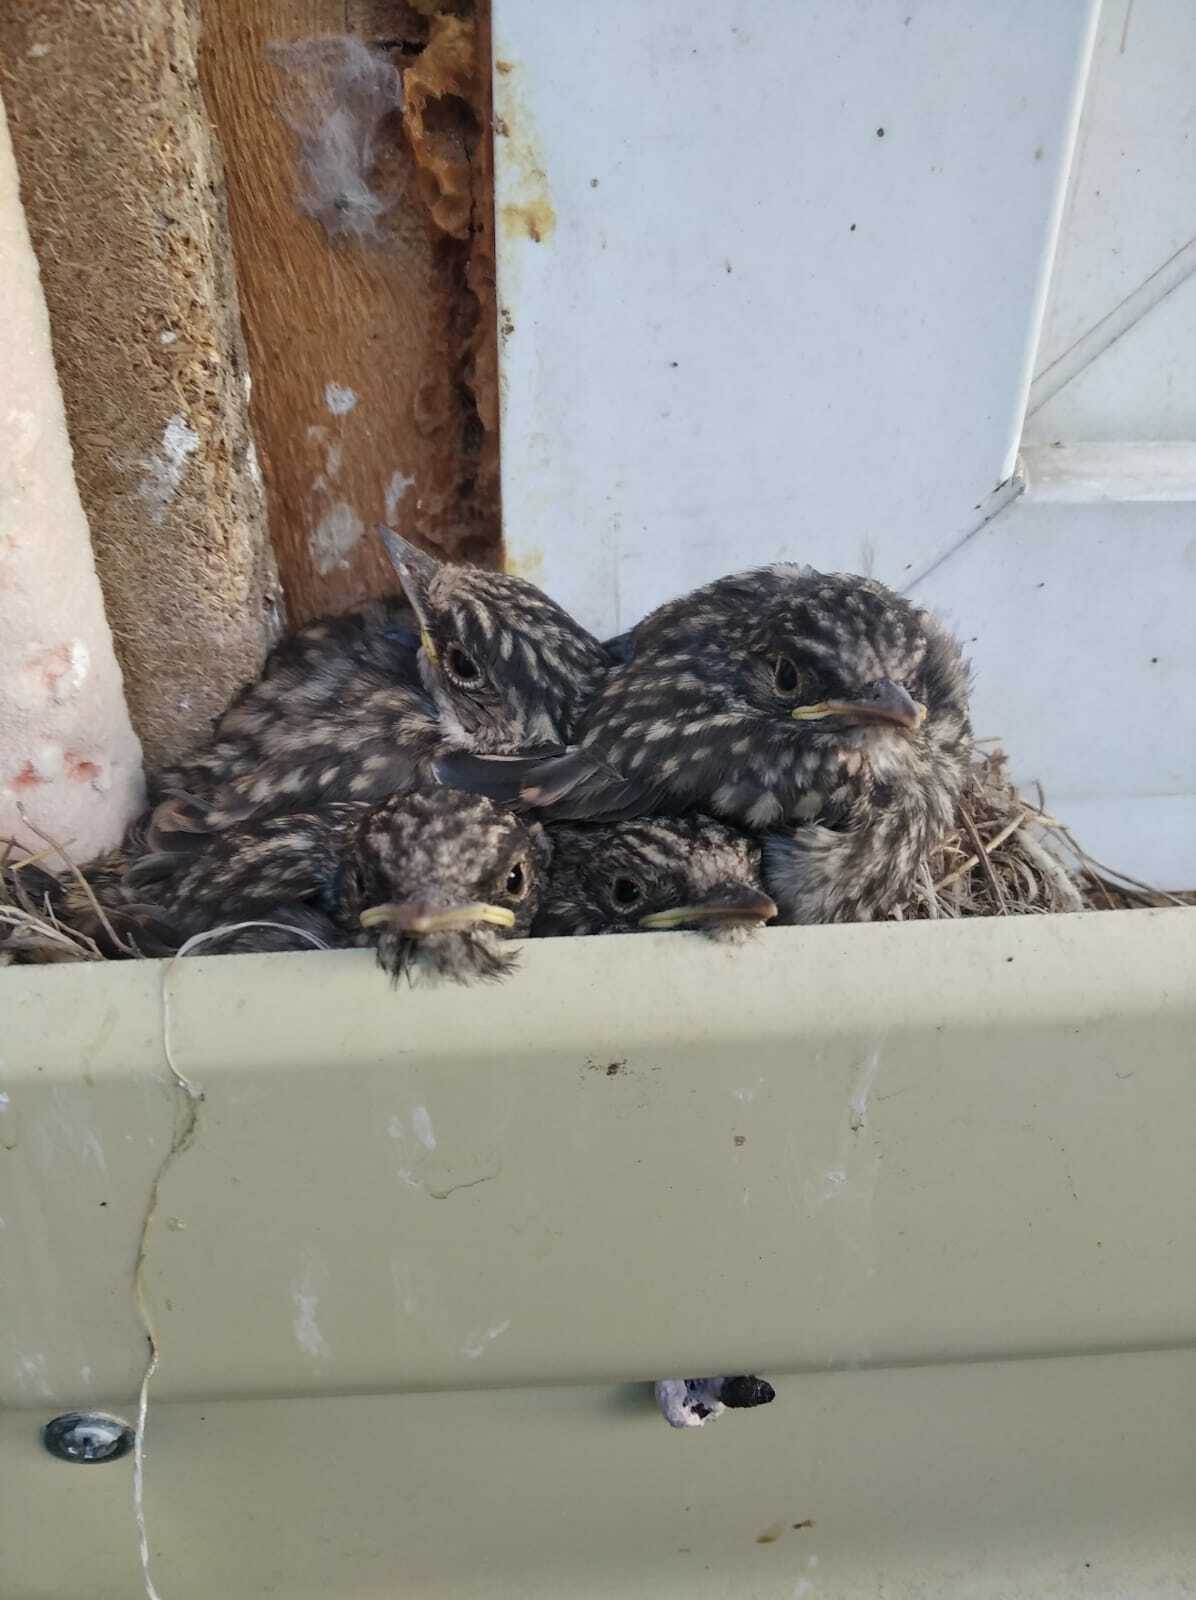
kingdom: Animalia
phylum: Chordata
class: Aves
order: Passeriformes
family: Muscicapidae
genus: Muscicapa
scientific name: Muscicapa striata
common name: Spotted flycatcher
